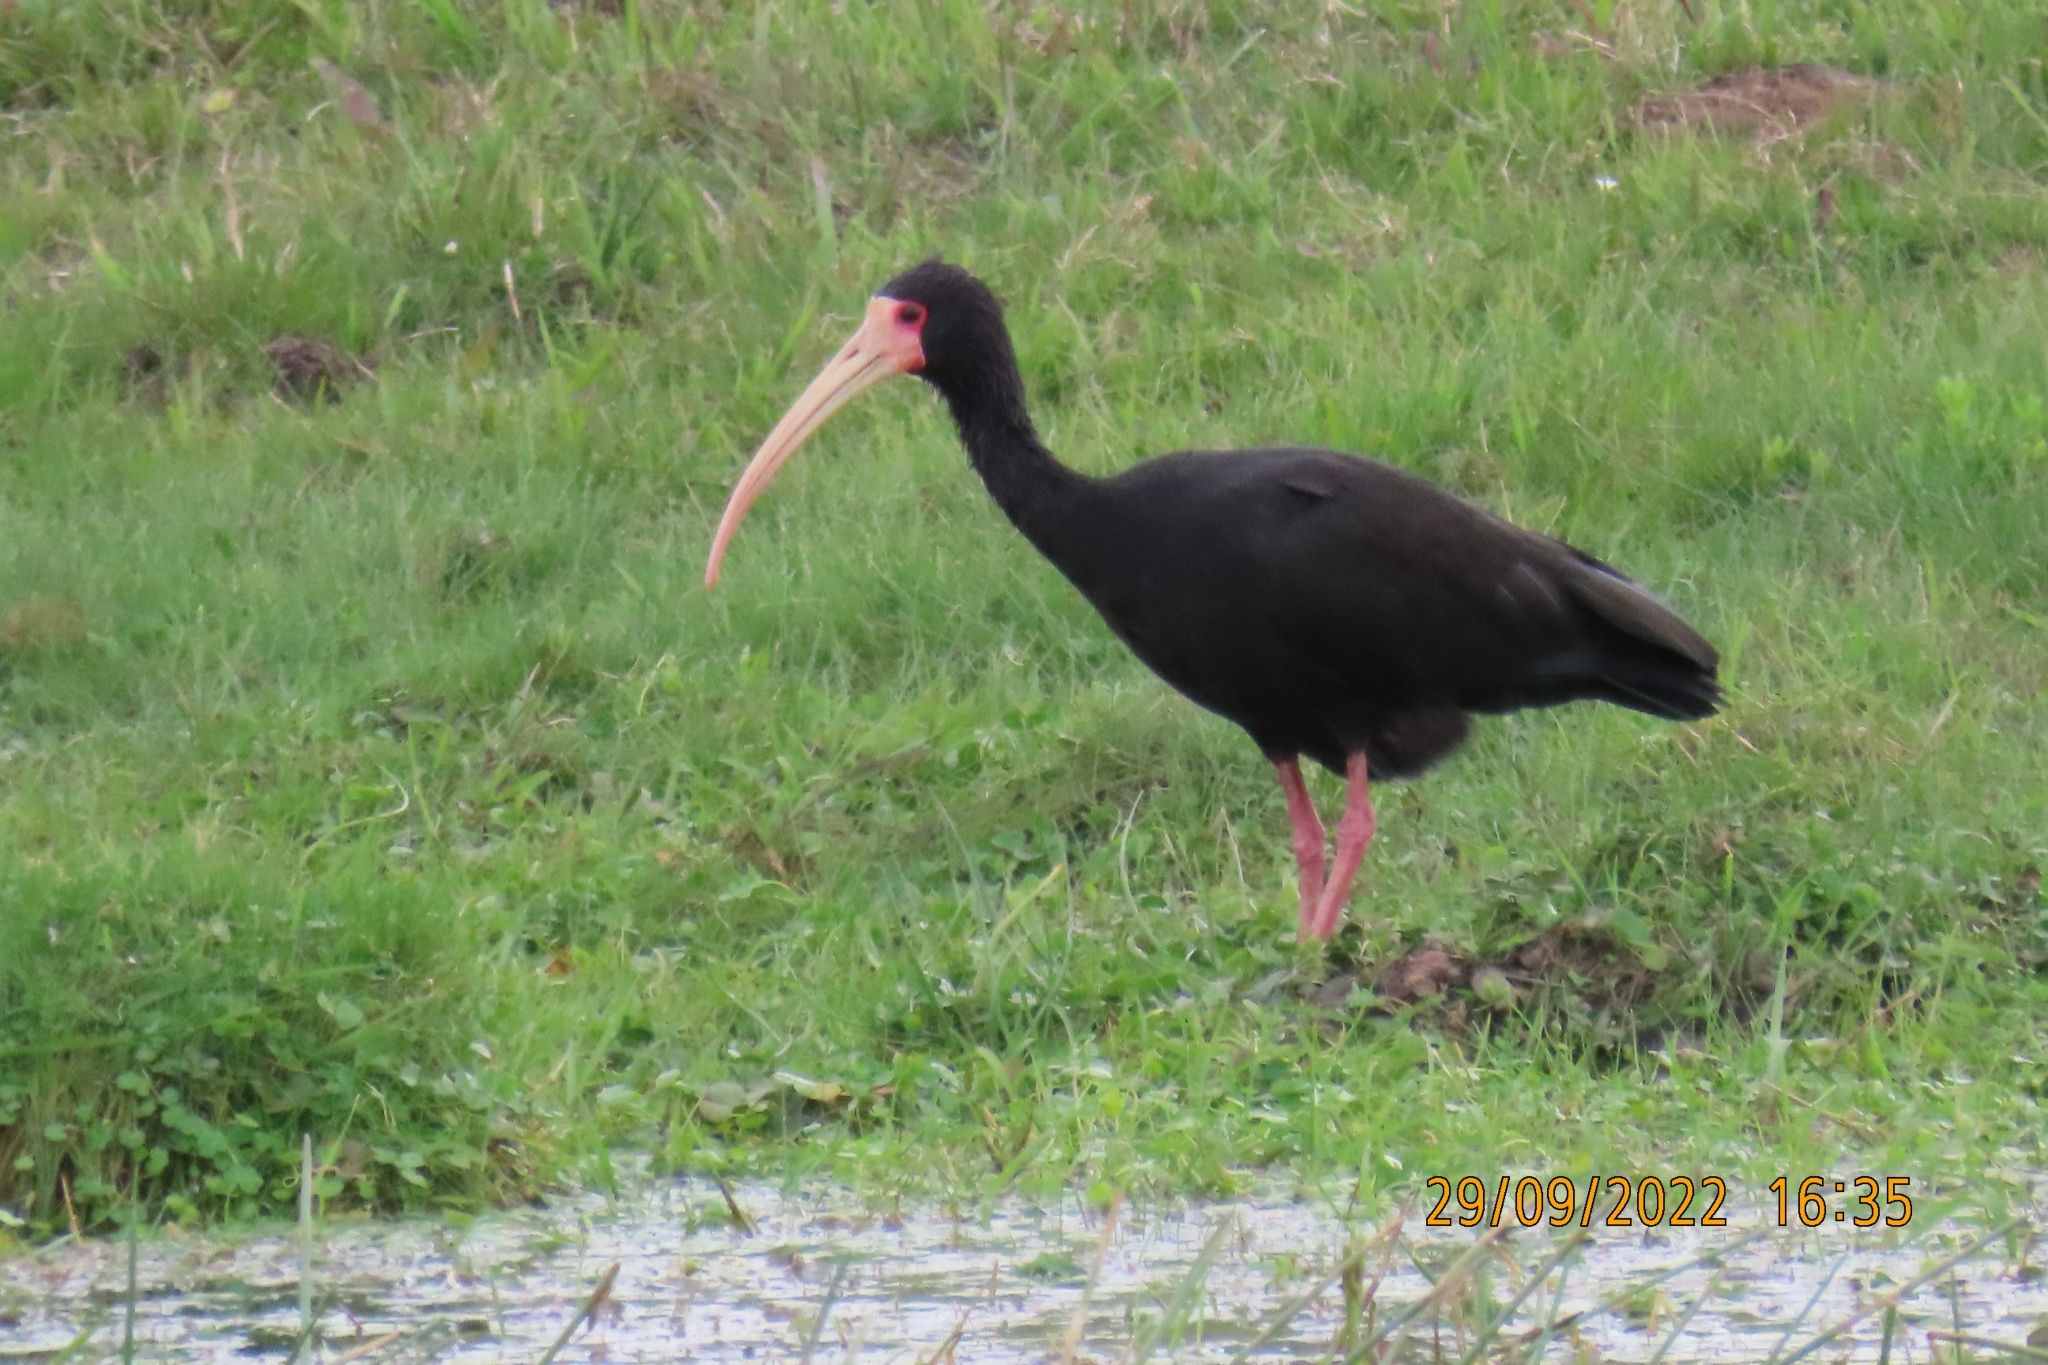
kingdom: Animalia
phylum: Chordata
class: Aves
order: Pelecaniformes
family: Threskiornithidae
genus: Phimosus
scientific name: Phimosus infuscatus
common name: Bare-faced ibis
